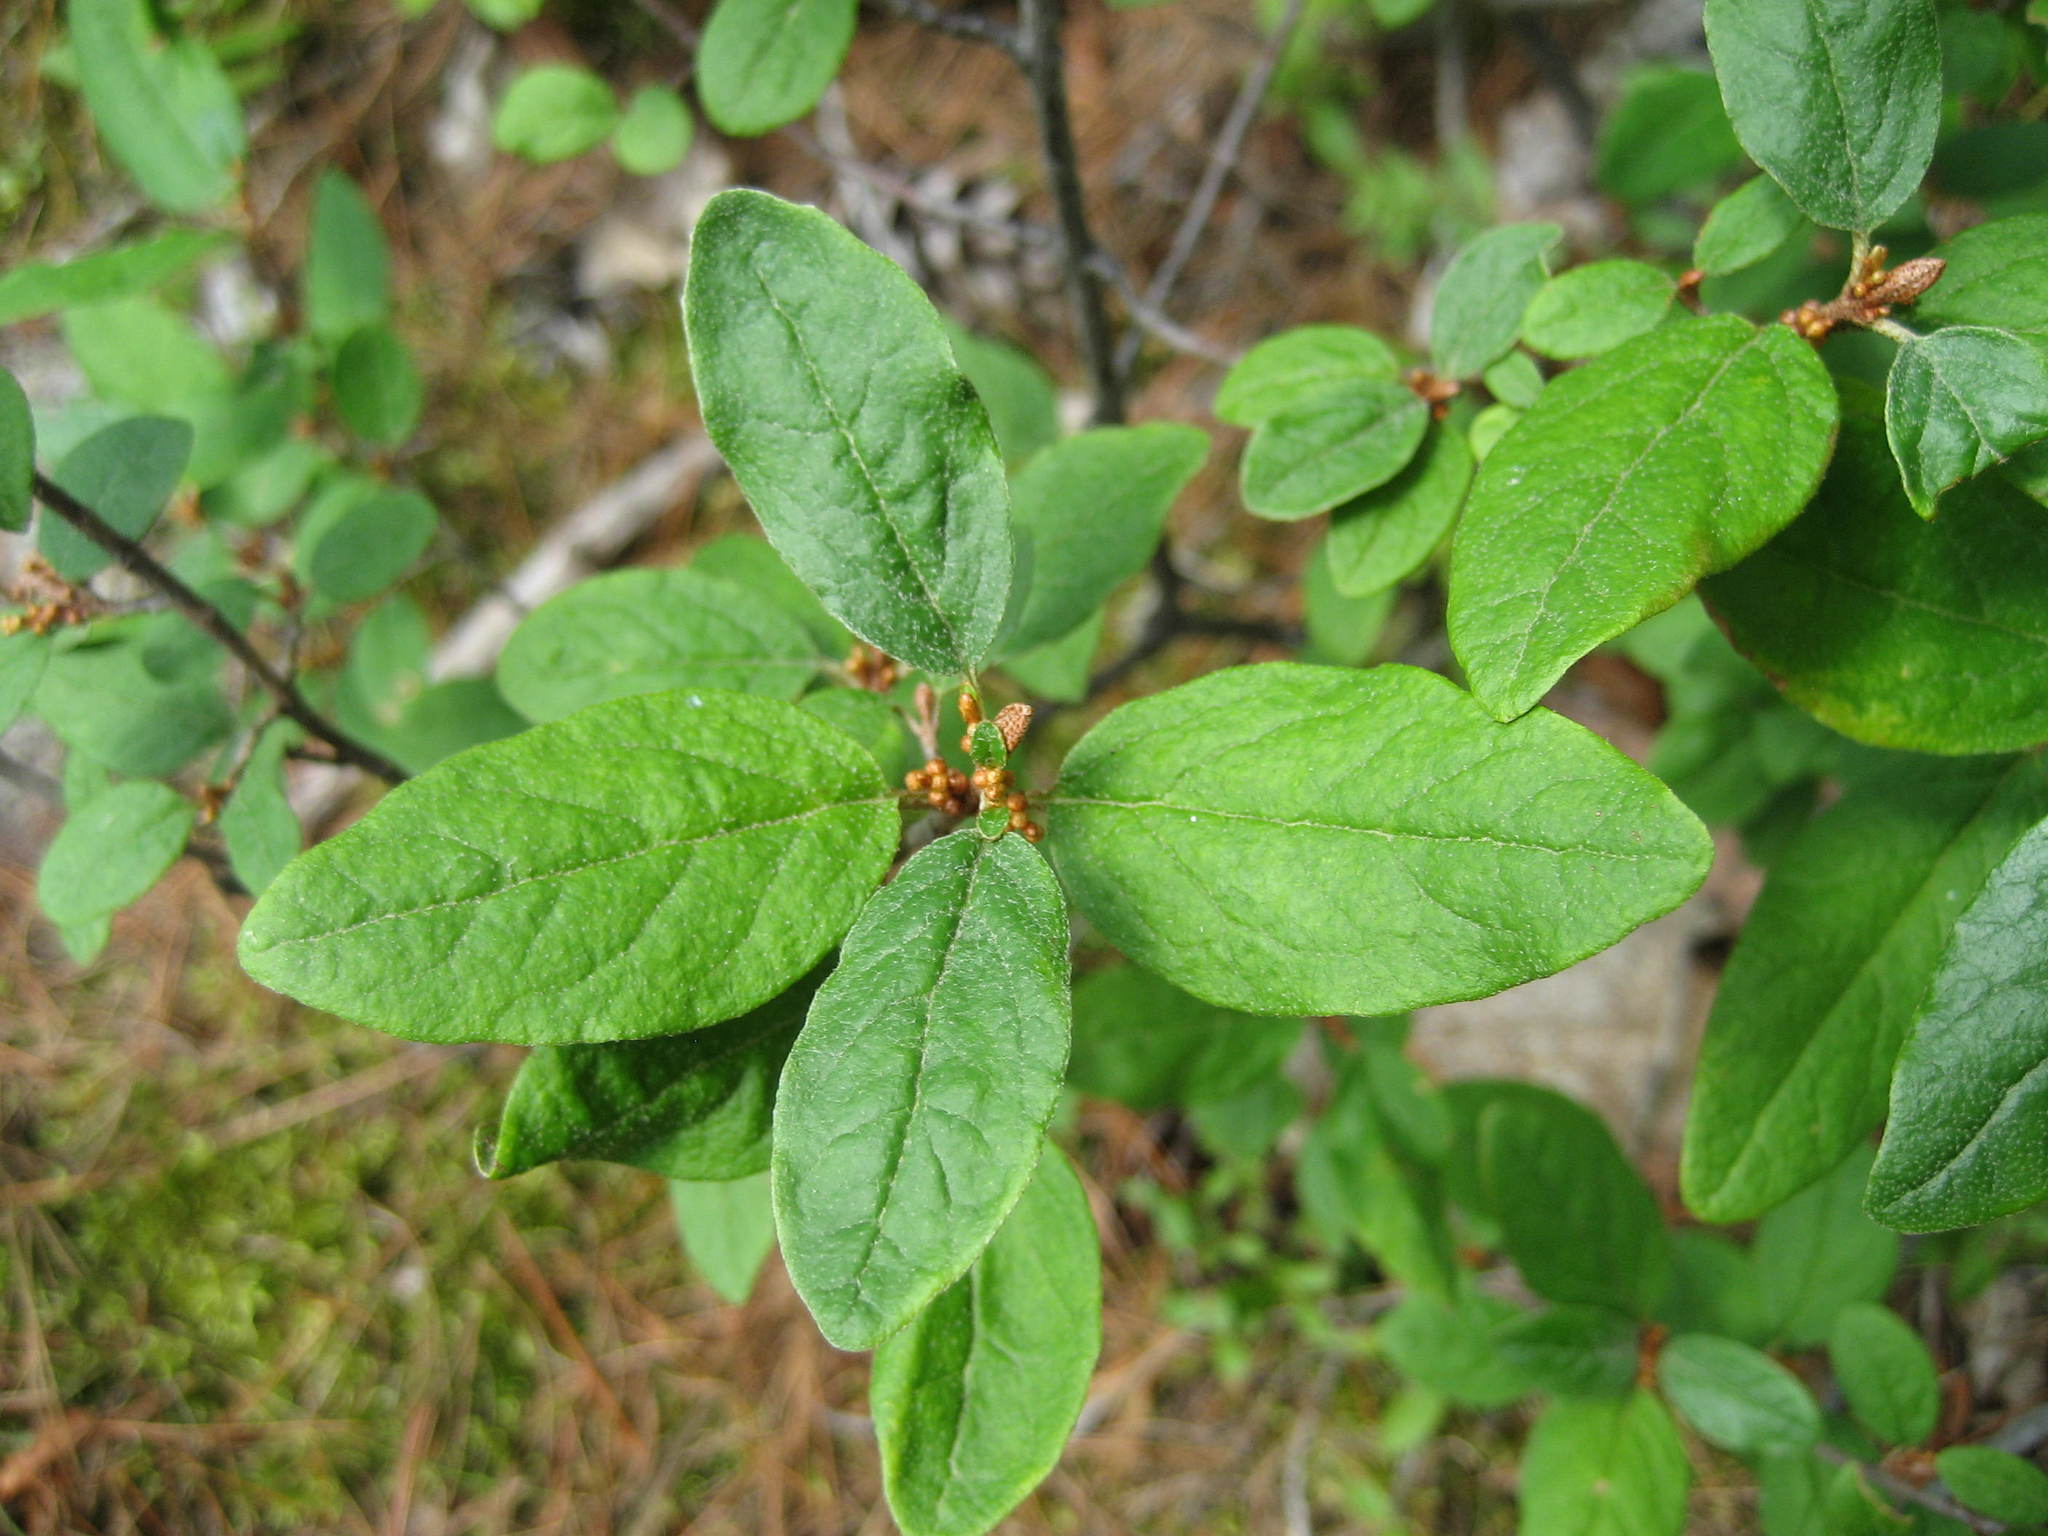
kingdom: Plantae
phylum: Tracheophyta
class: Magnoliopsida
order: Rosales
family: Elaeagnaceae
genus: Shepherdia
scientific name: Shepherdia canadensis
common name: Soapberry
